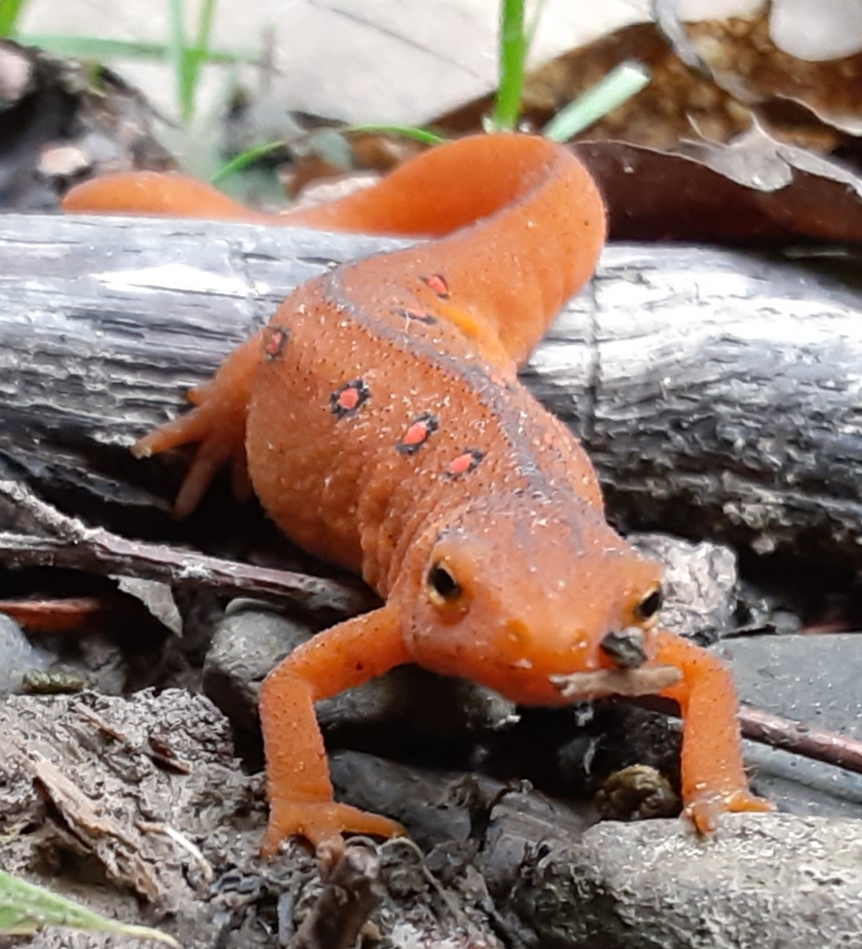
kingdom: Animalia
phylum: Chordata
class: Amphibia
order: Caudata
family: Salamandridae
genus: Notophthalmus
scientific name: Notophthalmus viridescens
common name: Eastern newt
